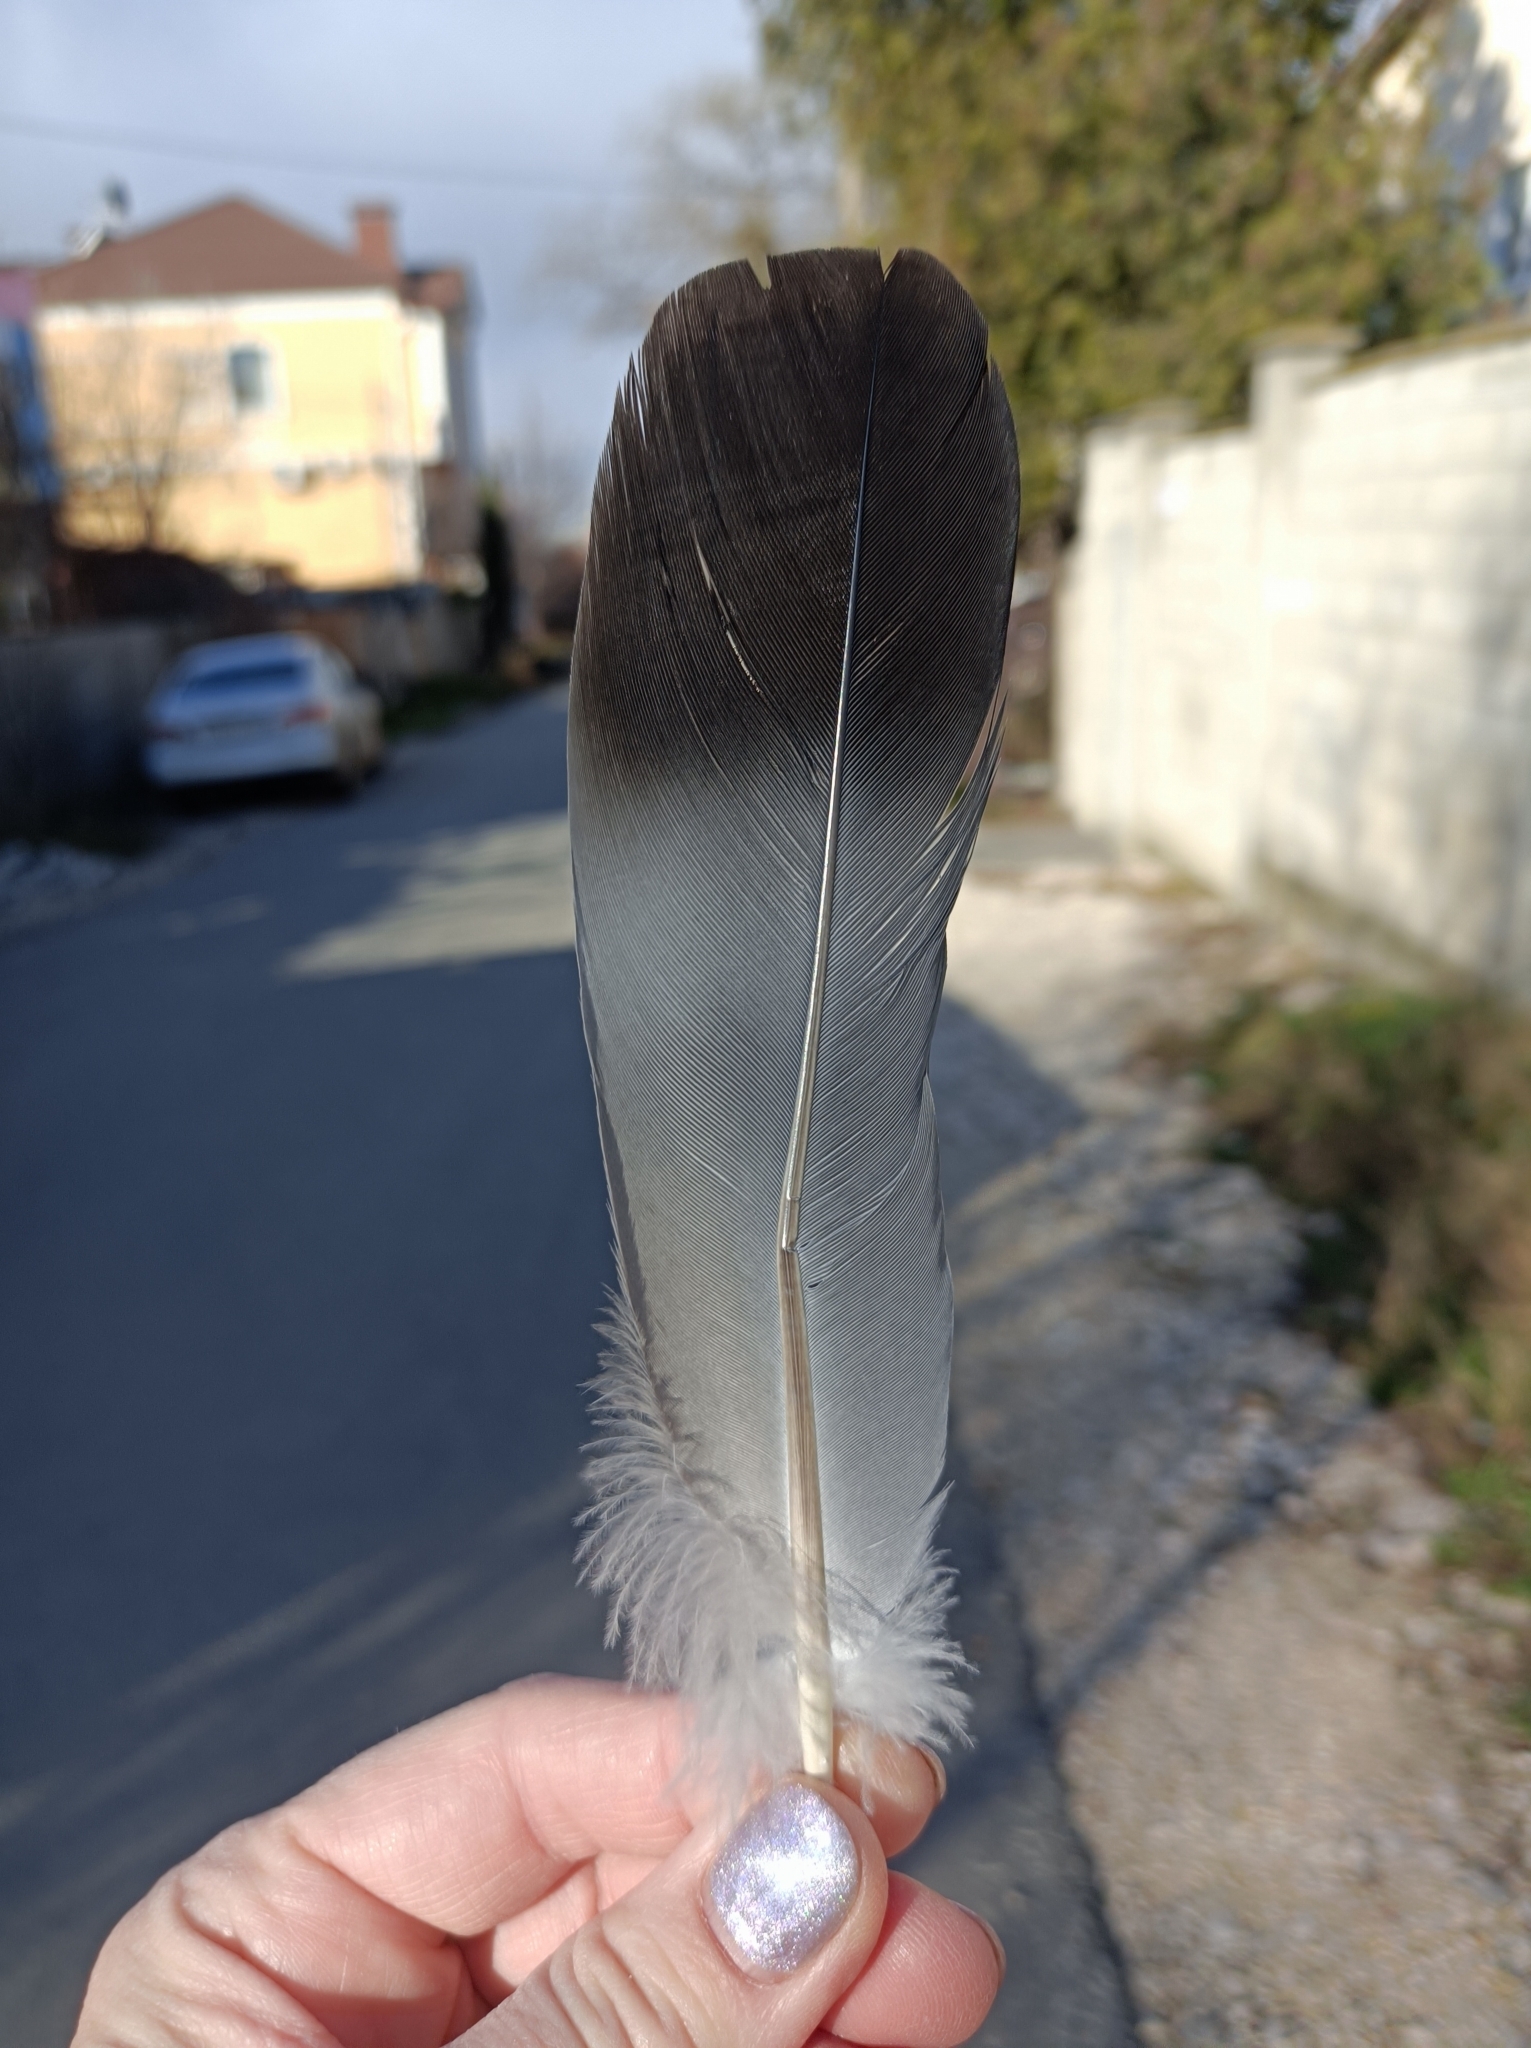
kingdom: Animalia
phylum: Chordata
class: Aves
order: Columbiformes
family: Columbidae
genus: Columba
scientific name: Columba livia
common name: Rock pigeon
